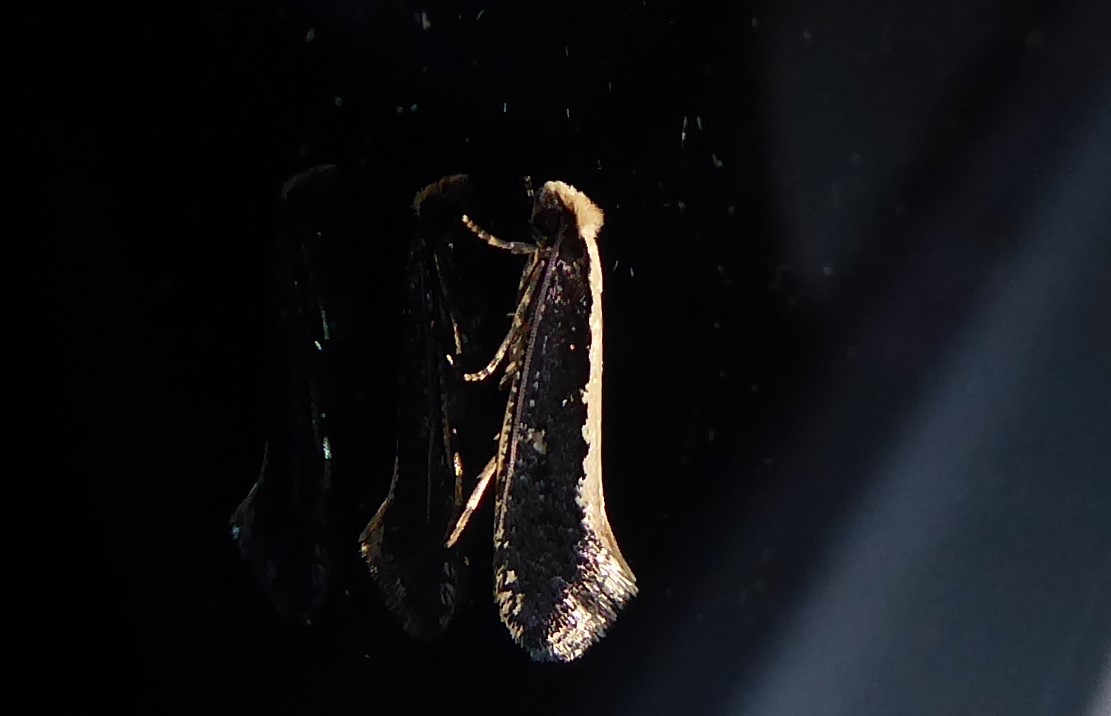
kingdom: Animalia
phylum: Arthropoda
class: Insecta
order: Lepidoptera
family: Tineidae
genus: Monopis
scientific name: Monopis ethelella
